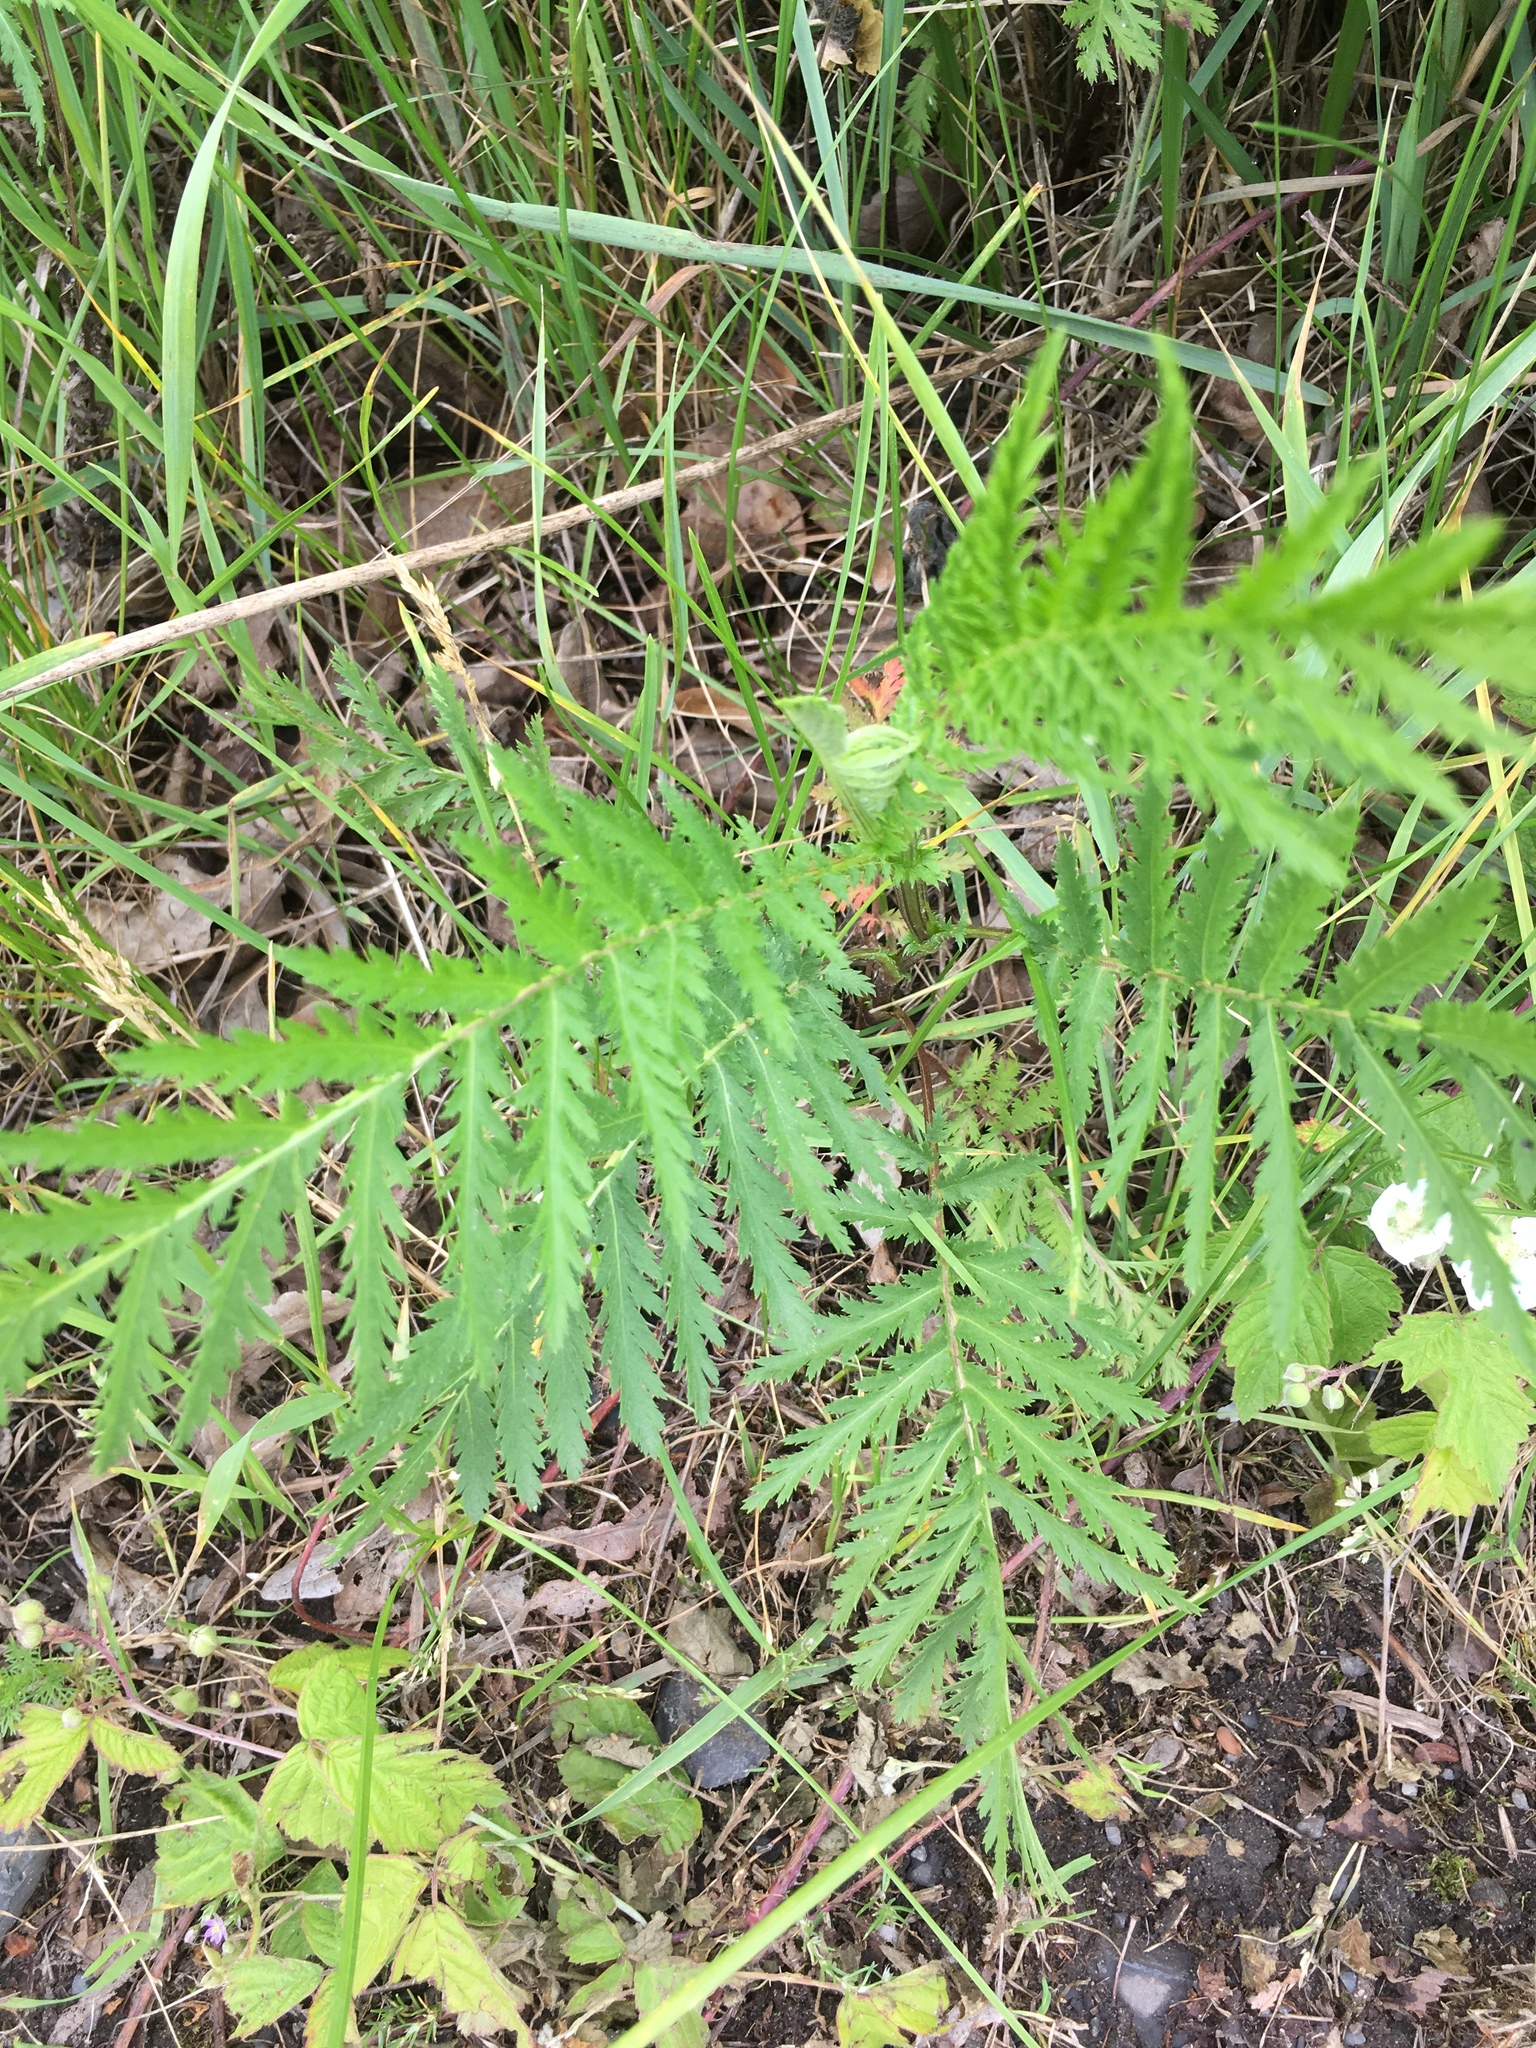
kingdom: Plantae
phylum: Tracheophyta
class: Magnoliopsida
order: Asterales
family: Asteraceae
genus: Tanacetum
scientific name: Tanacetum vulgare
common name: Common tansy
